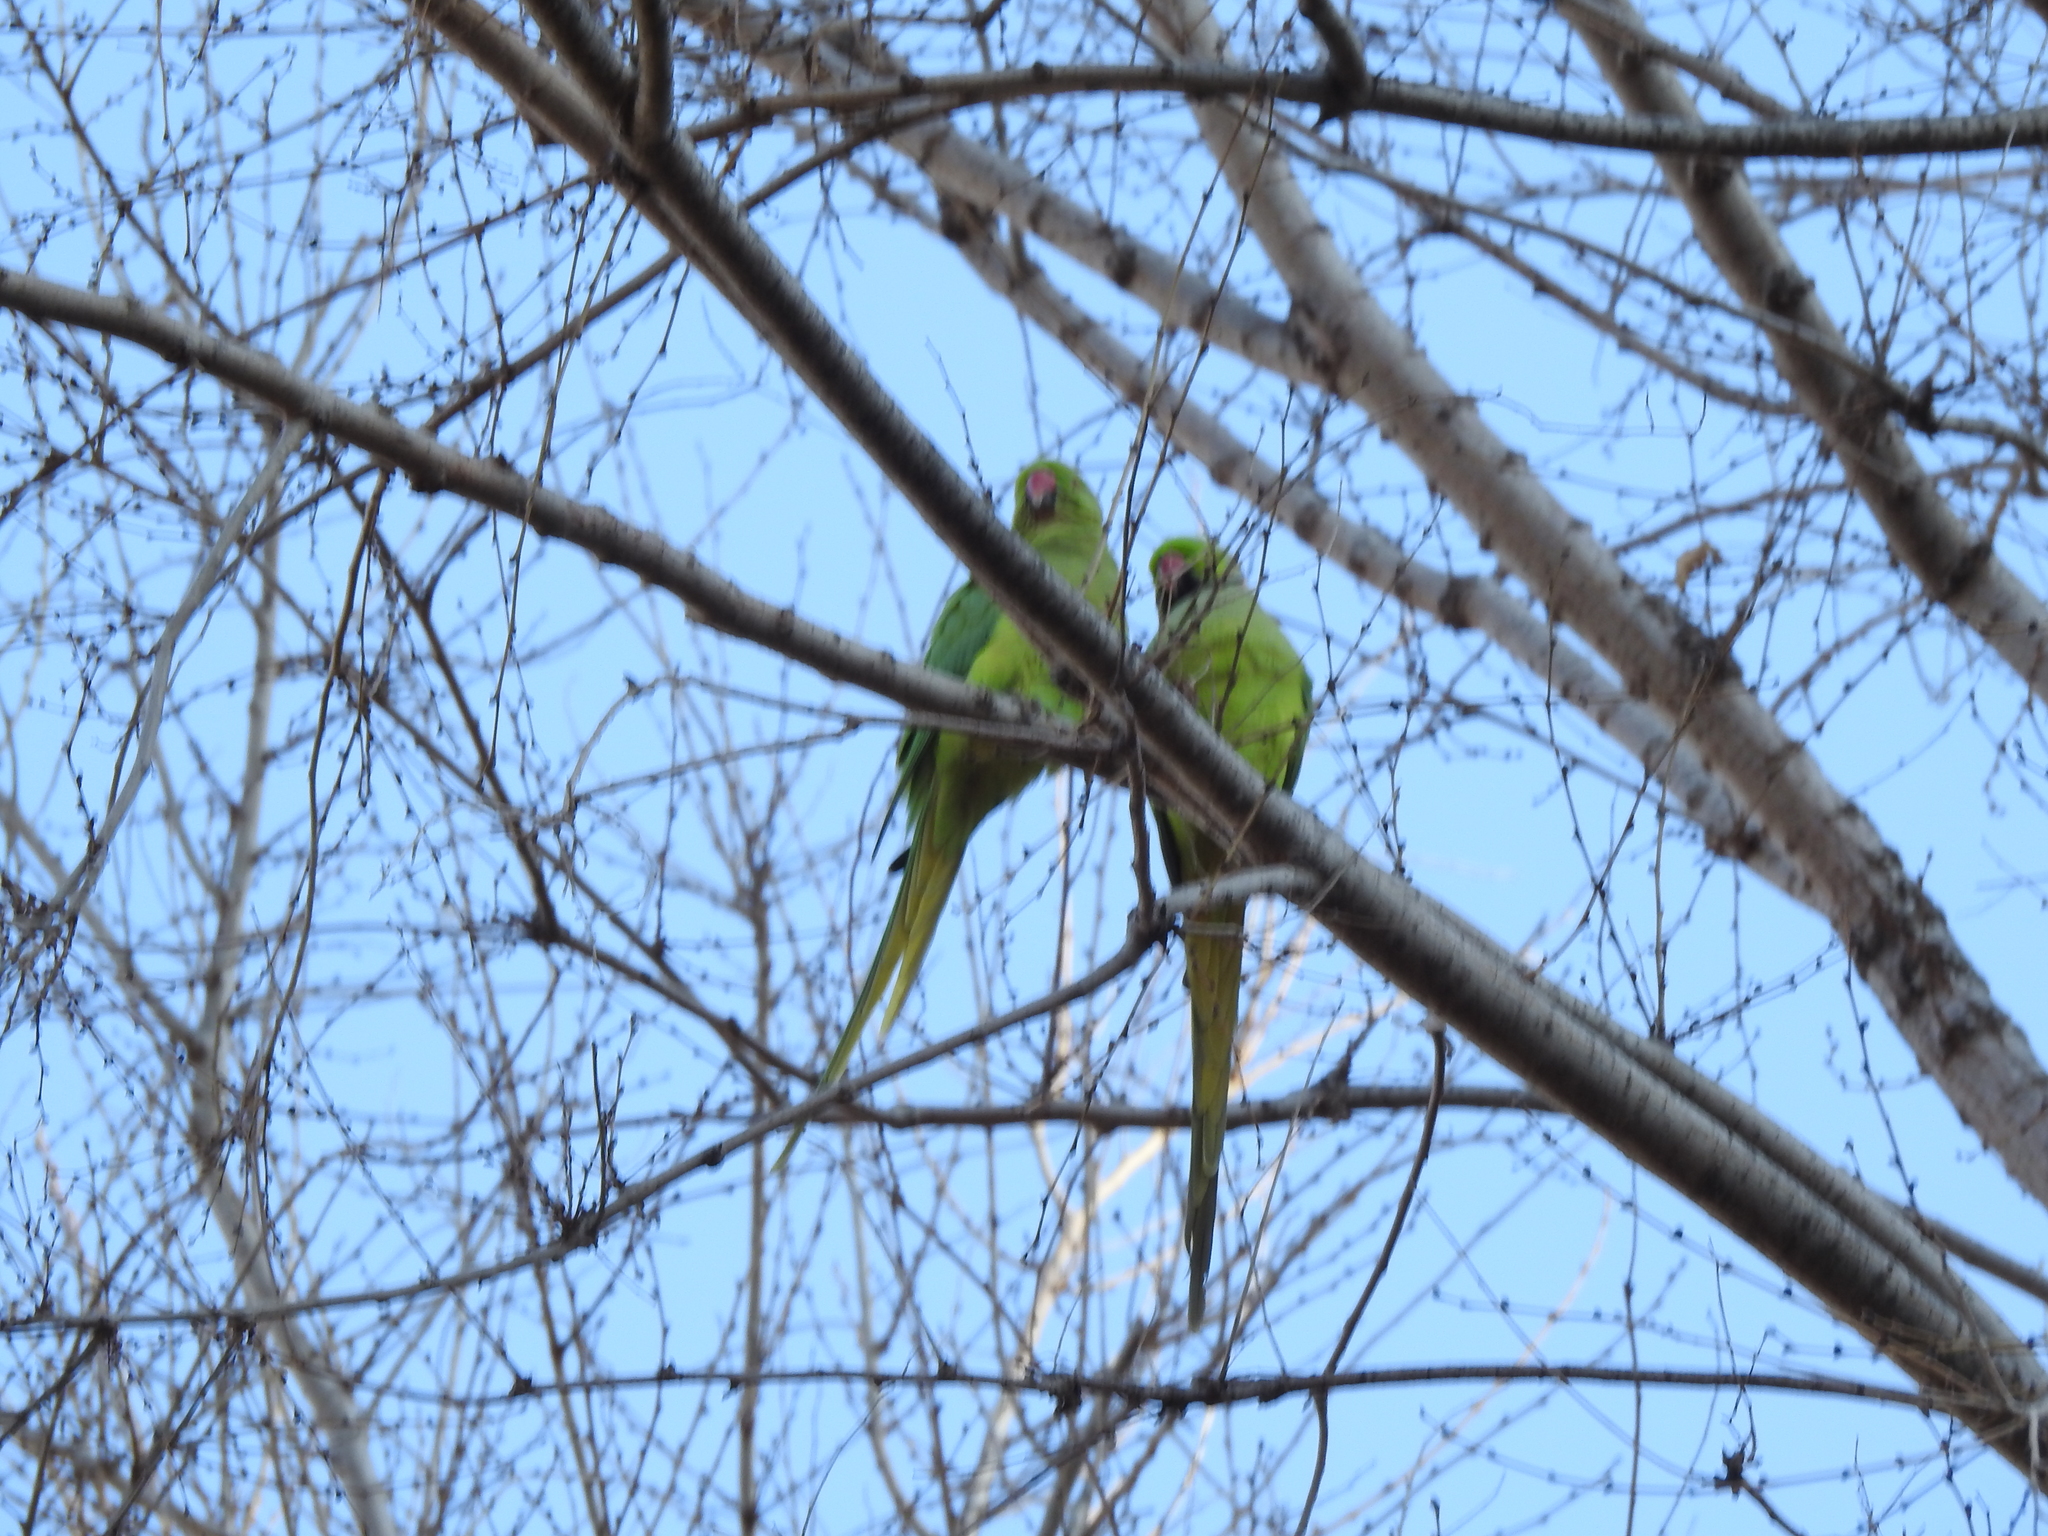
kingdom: Animalia
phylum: Chordata
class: Aves
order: Psittaciformes
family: Psittacidae
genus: Psittacula
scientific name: Psittacula krameri
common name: Rose-ringed parakeet
